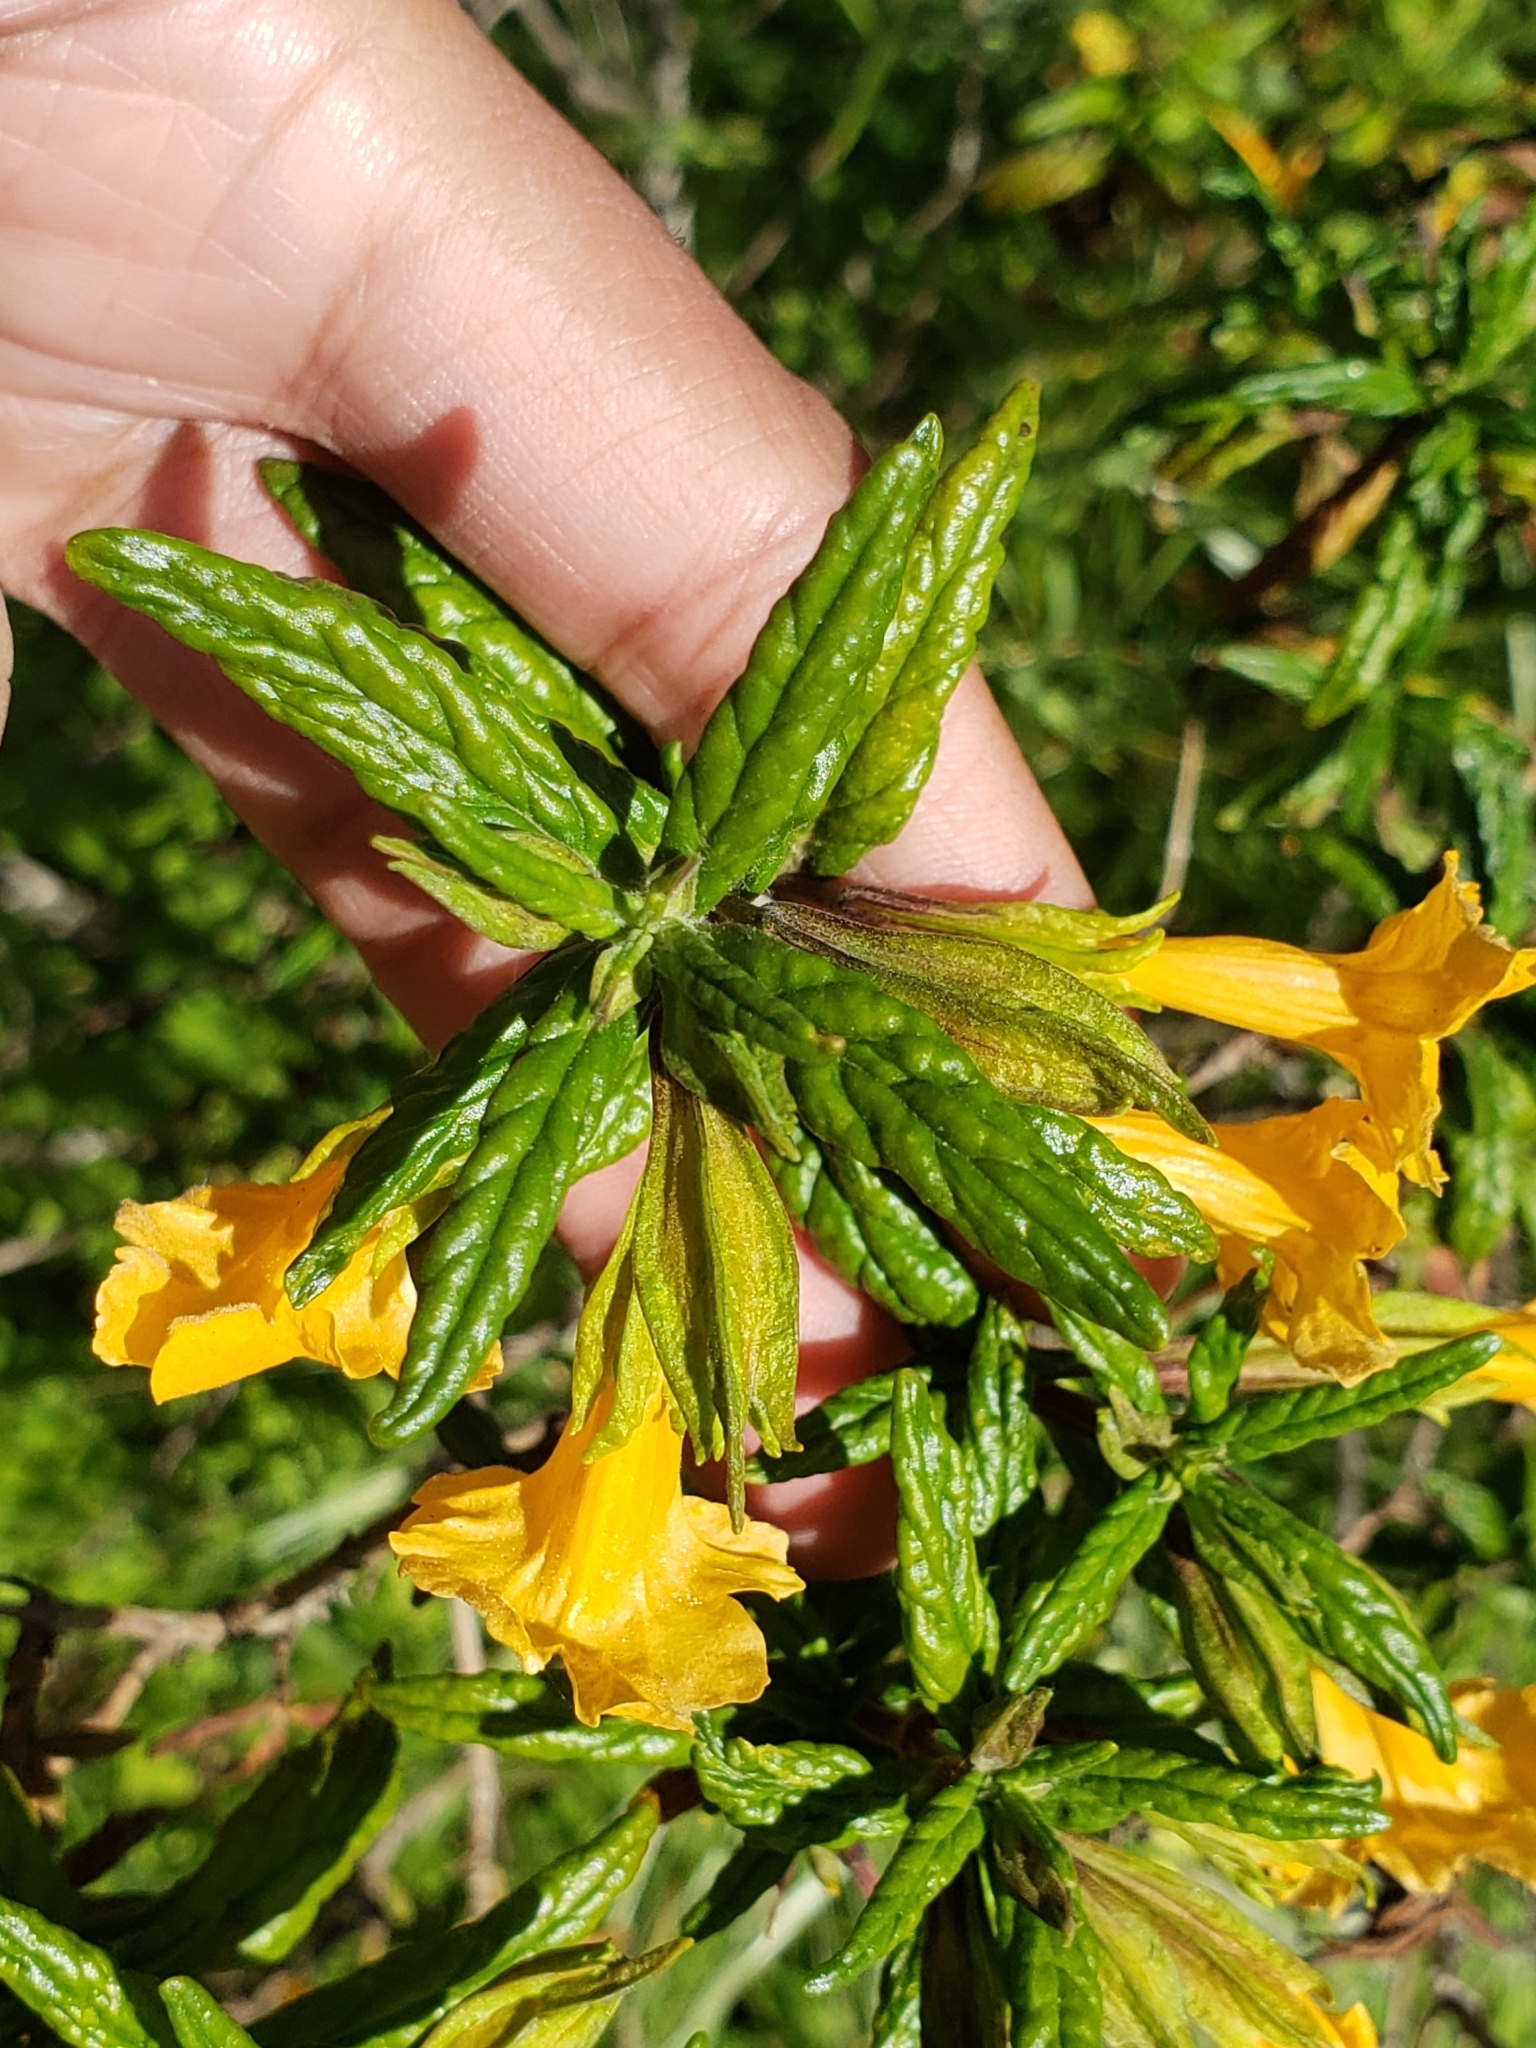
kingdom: Plantae
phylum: Tracheophyta
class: Magnoliopsida
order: Lamiales
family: Phrymaceae
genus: Diplacus
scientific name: Diplacus aurantiacus
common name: Bush monkey-flower
